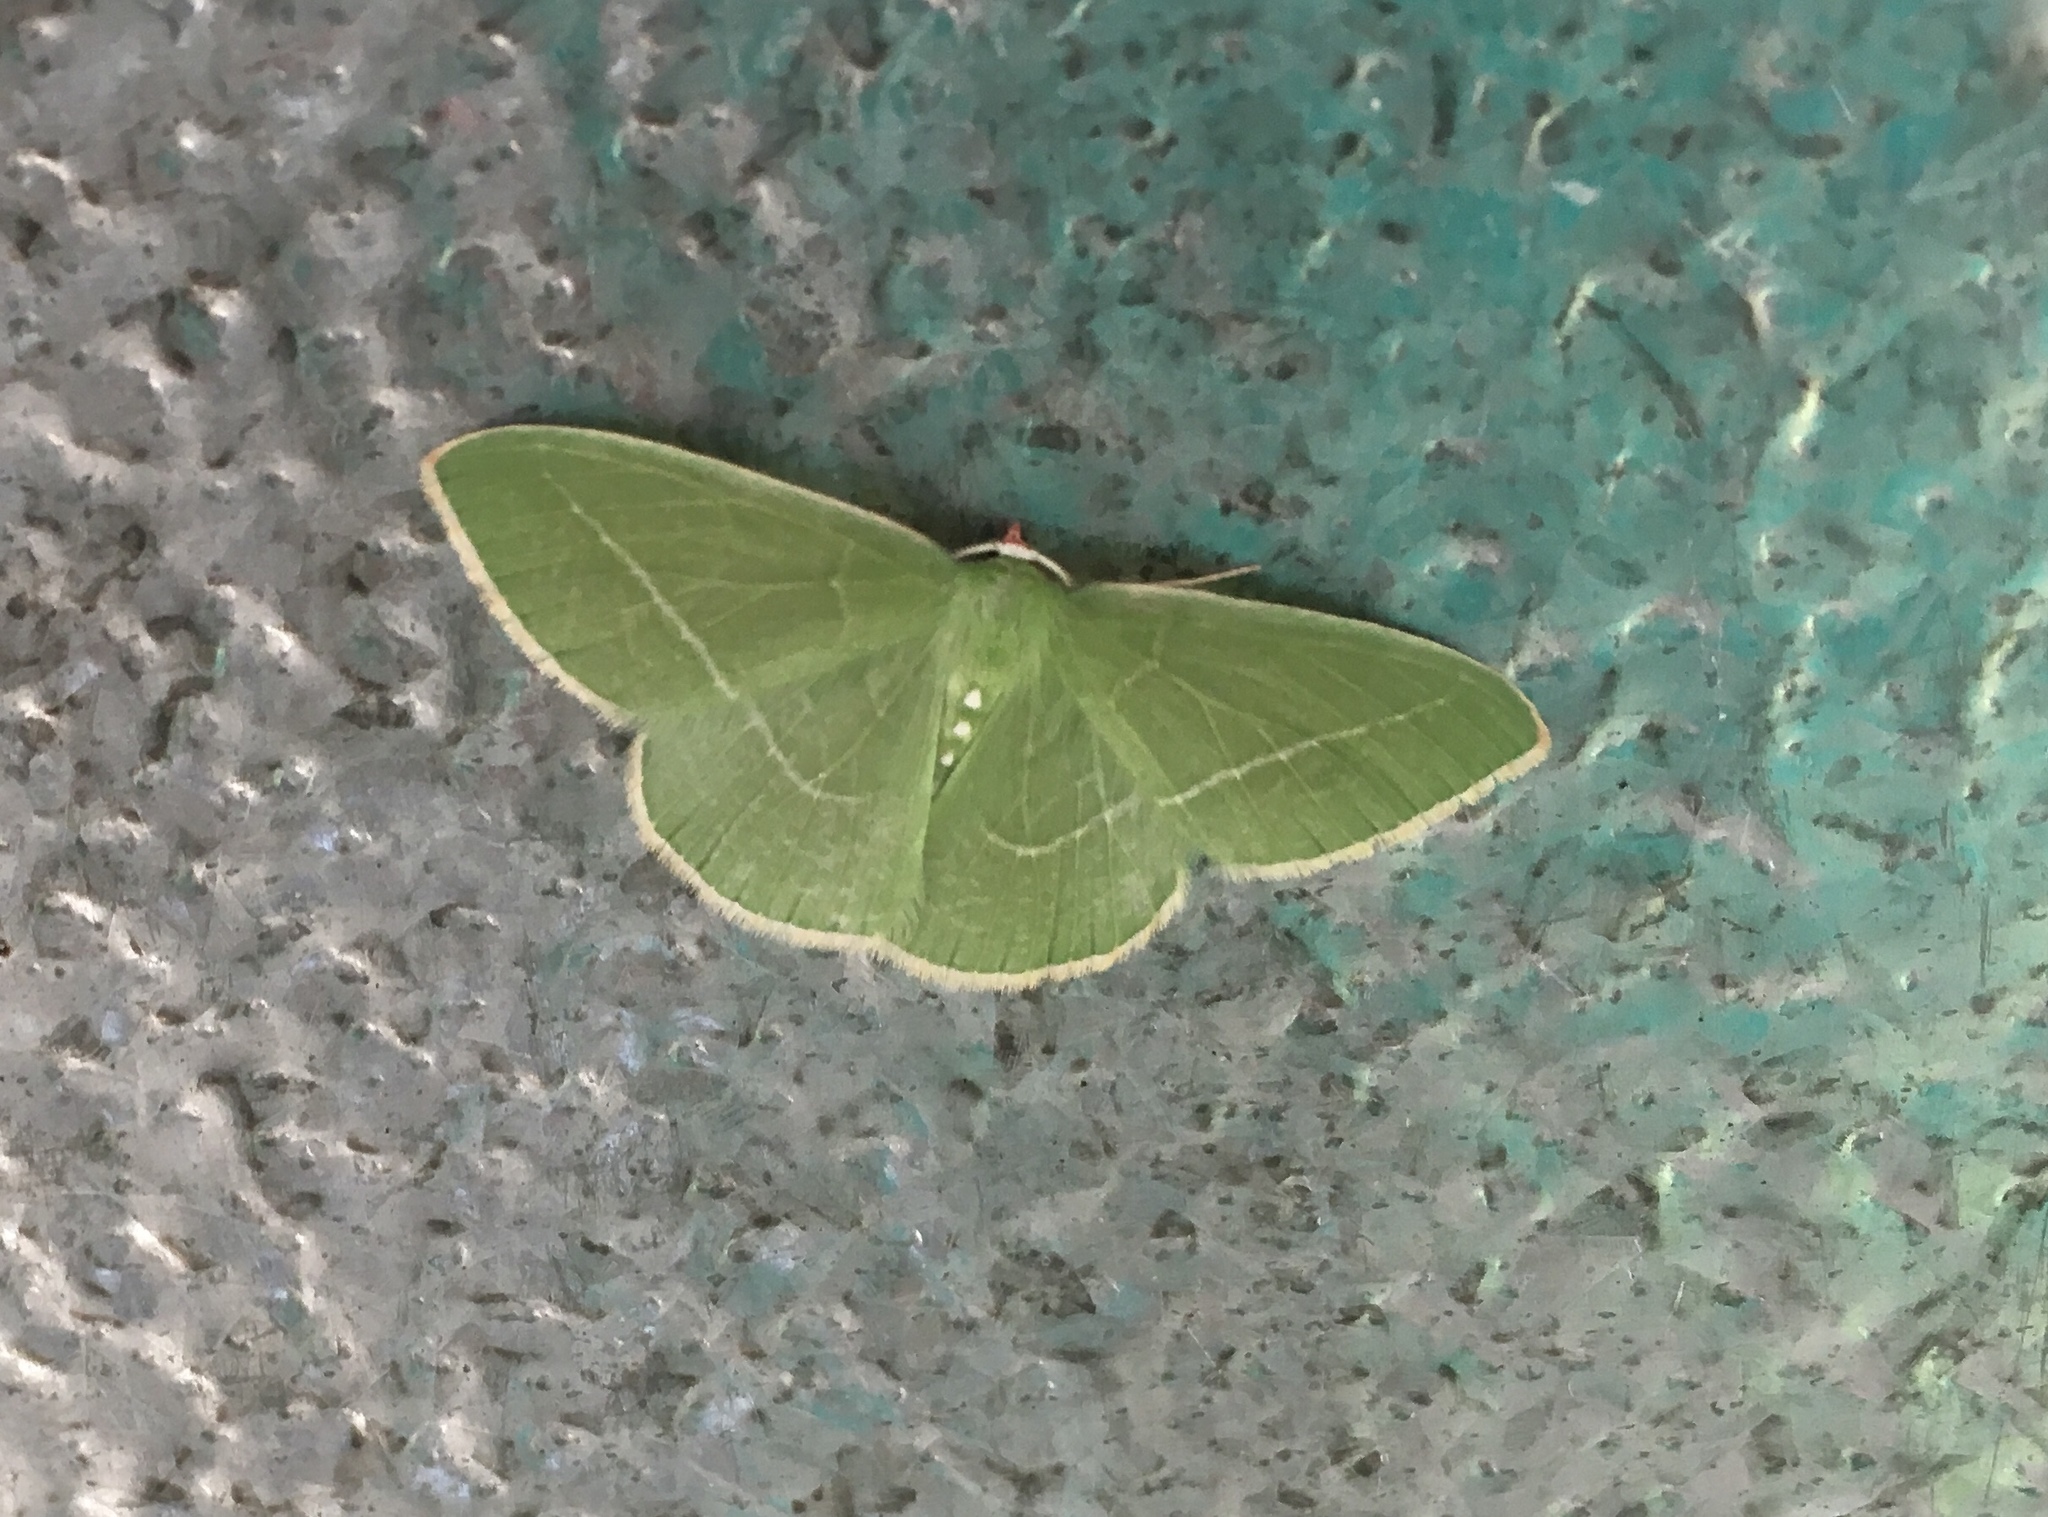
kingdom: Animalia
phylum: Arthropoda
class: Insecta
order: Lepidoptera
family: Geometridae
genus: Nemoria
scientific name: Nemoria unitaria
